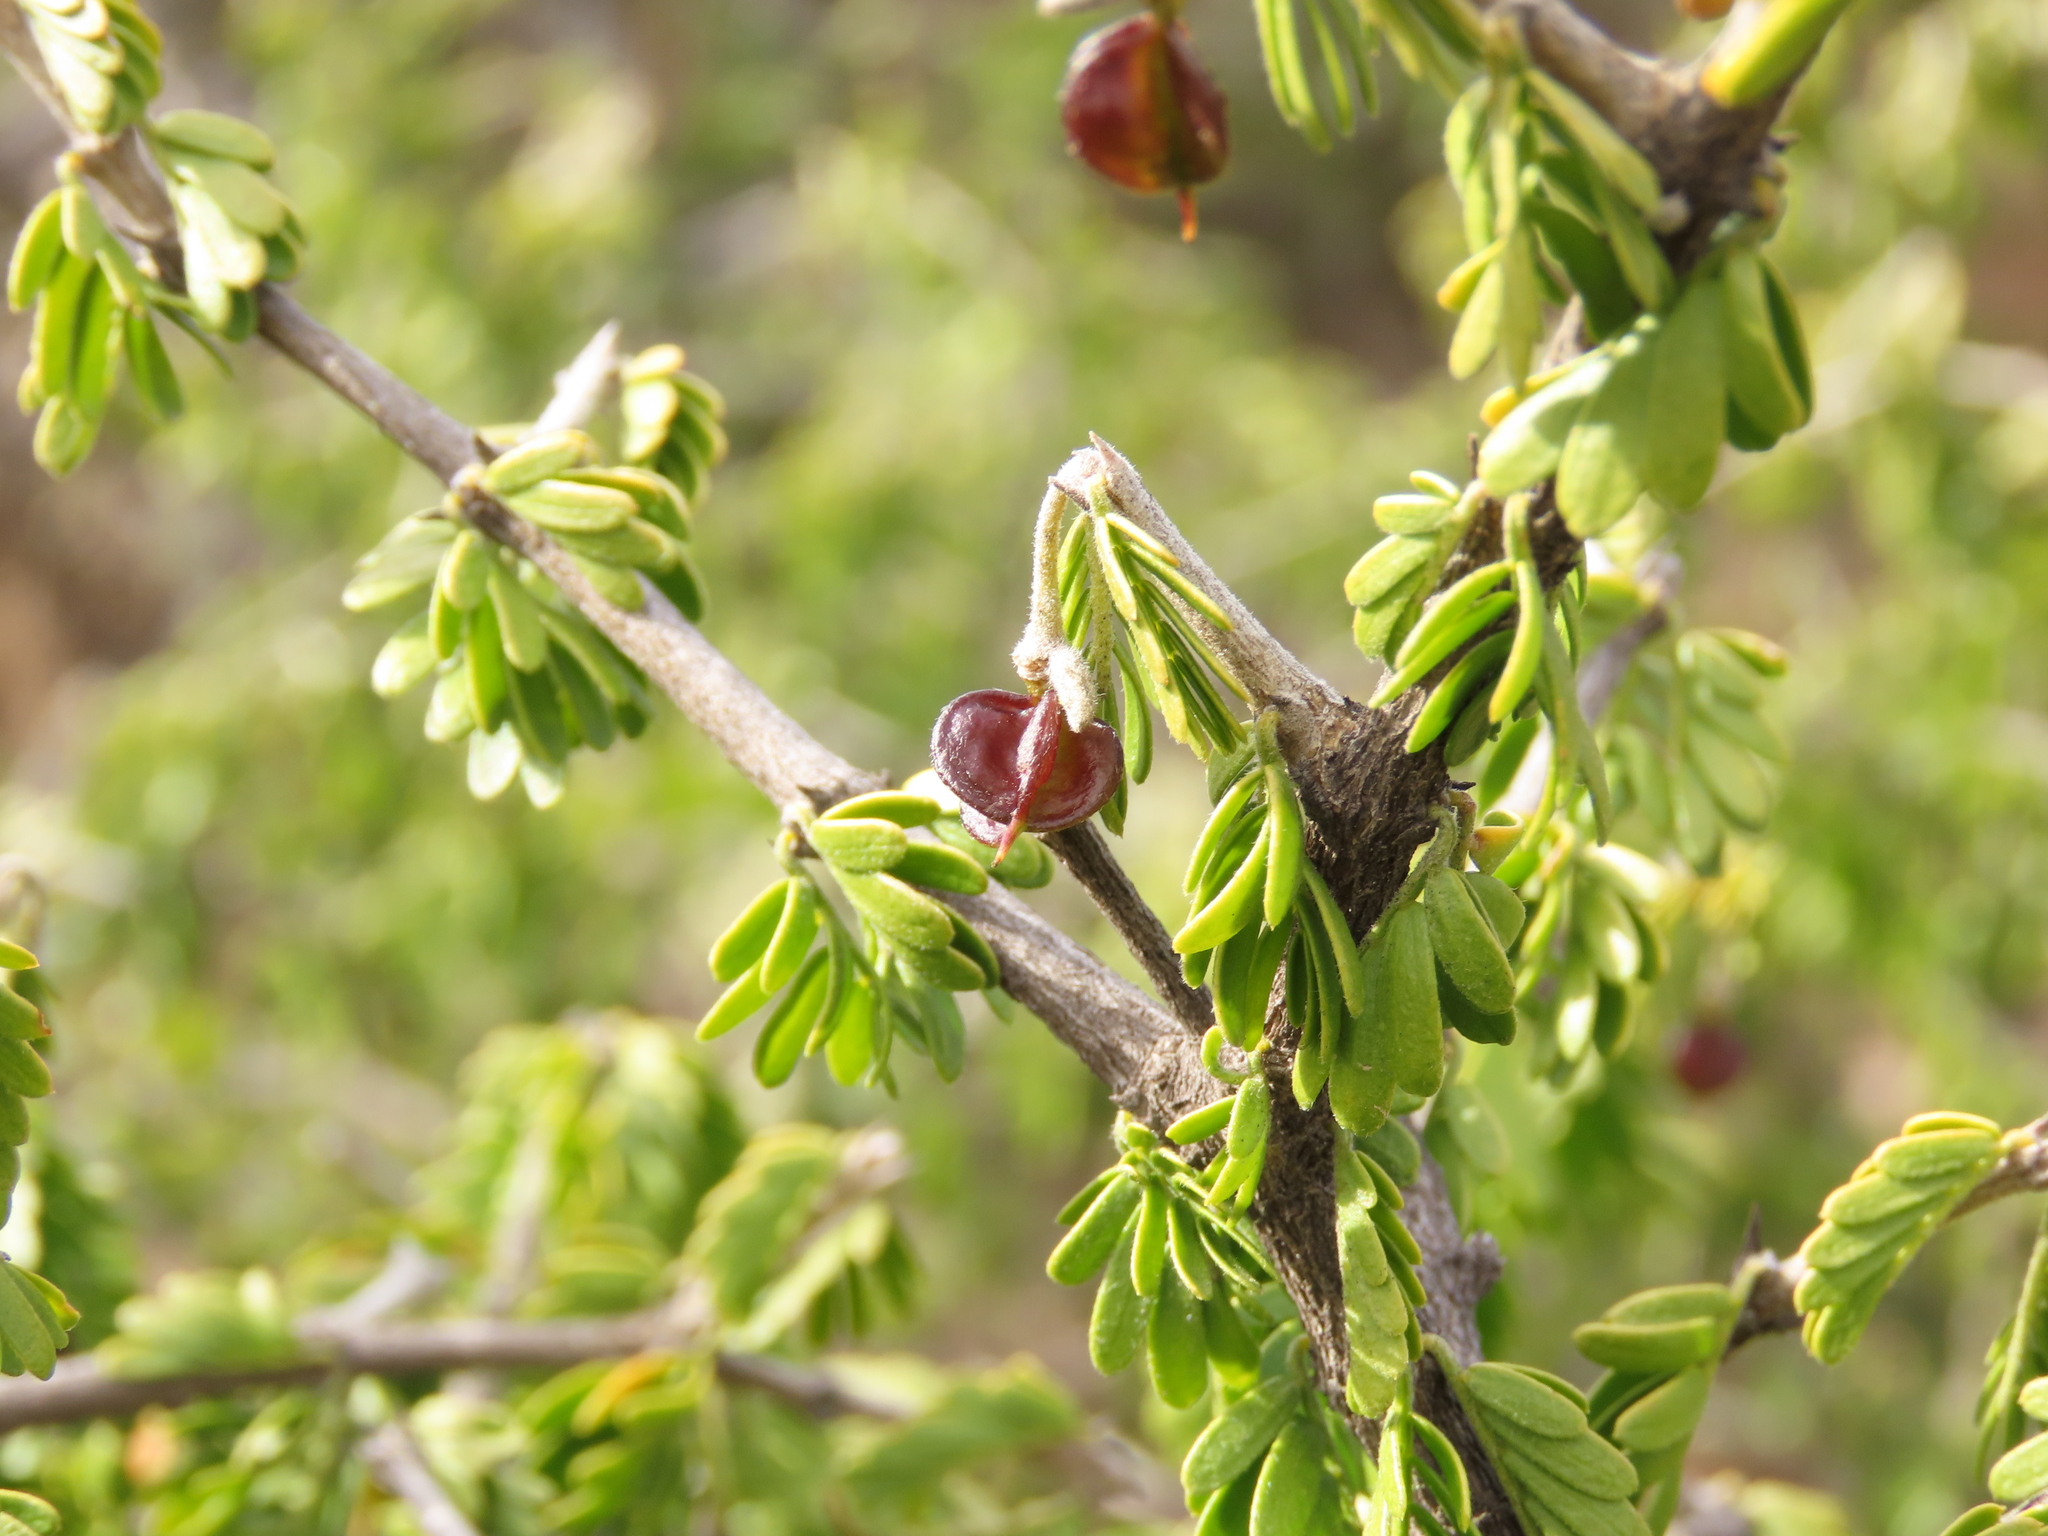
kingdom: Plantae
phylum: Tracheophyta
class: Magnoliopsida
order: Zygophyllales
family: Zygophyllaceae
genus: Porlieria
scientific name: Porlieria chilensis
